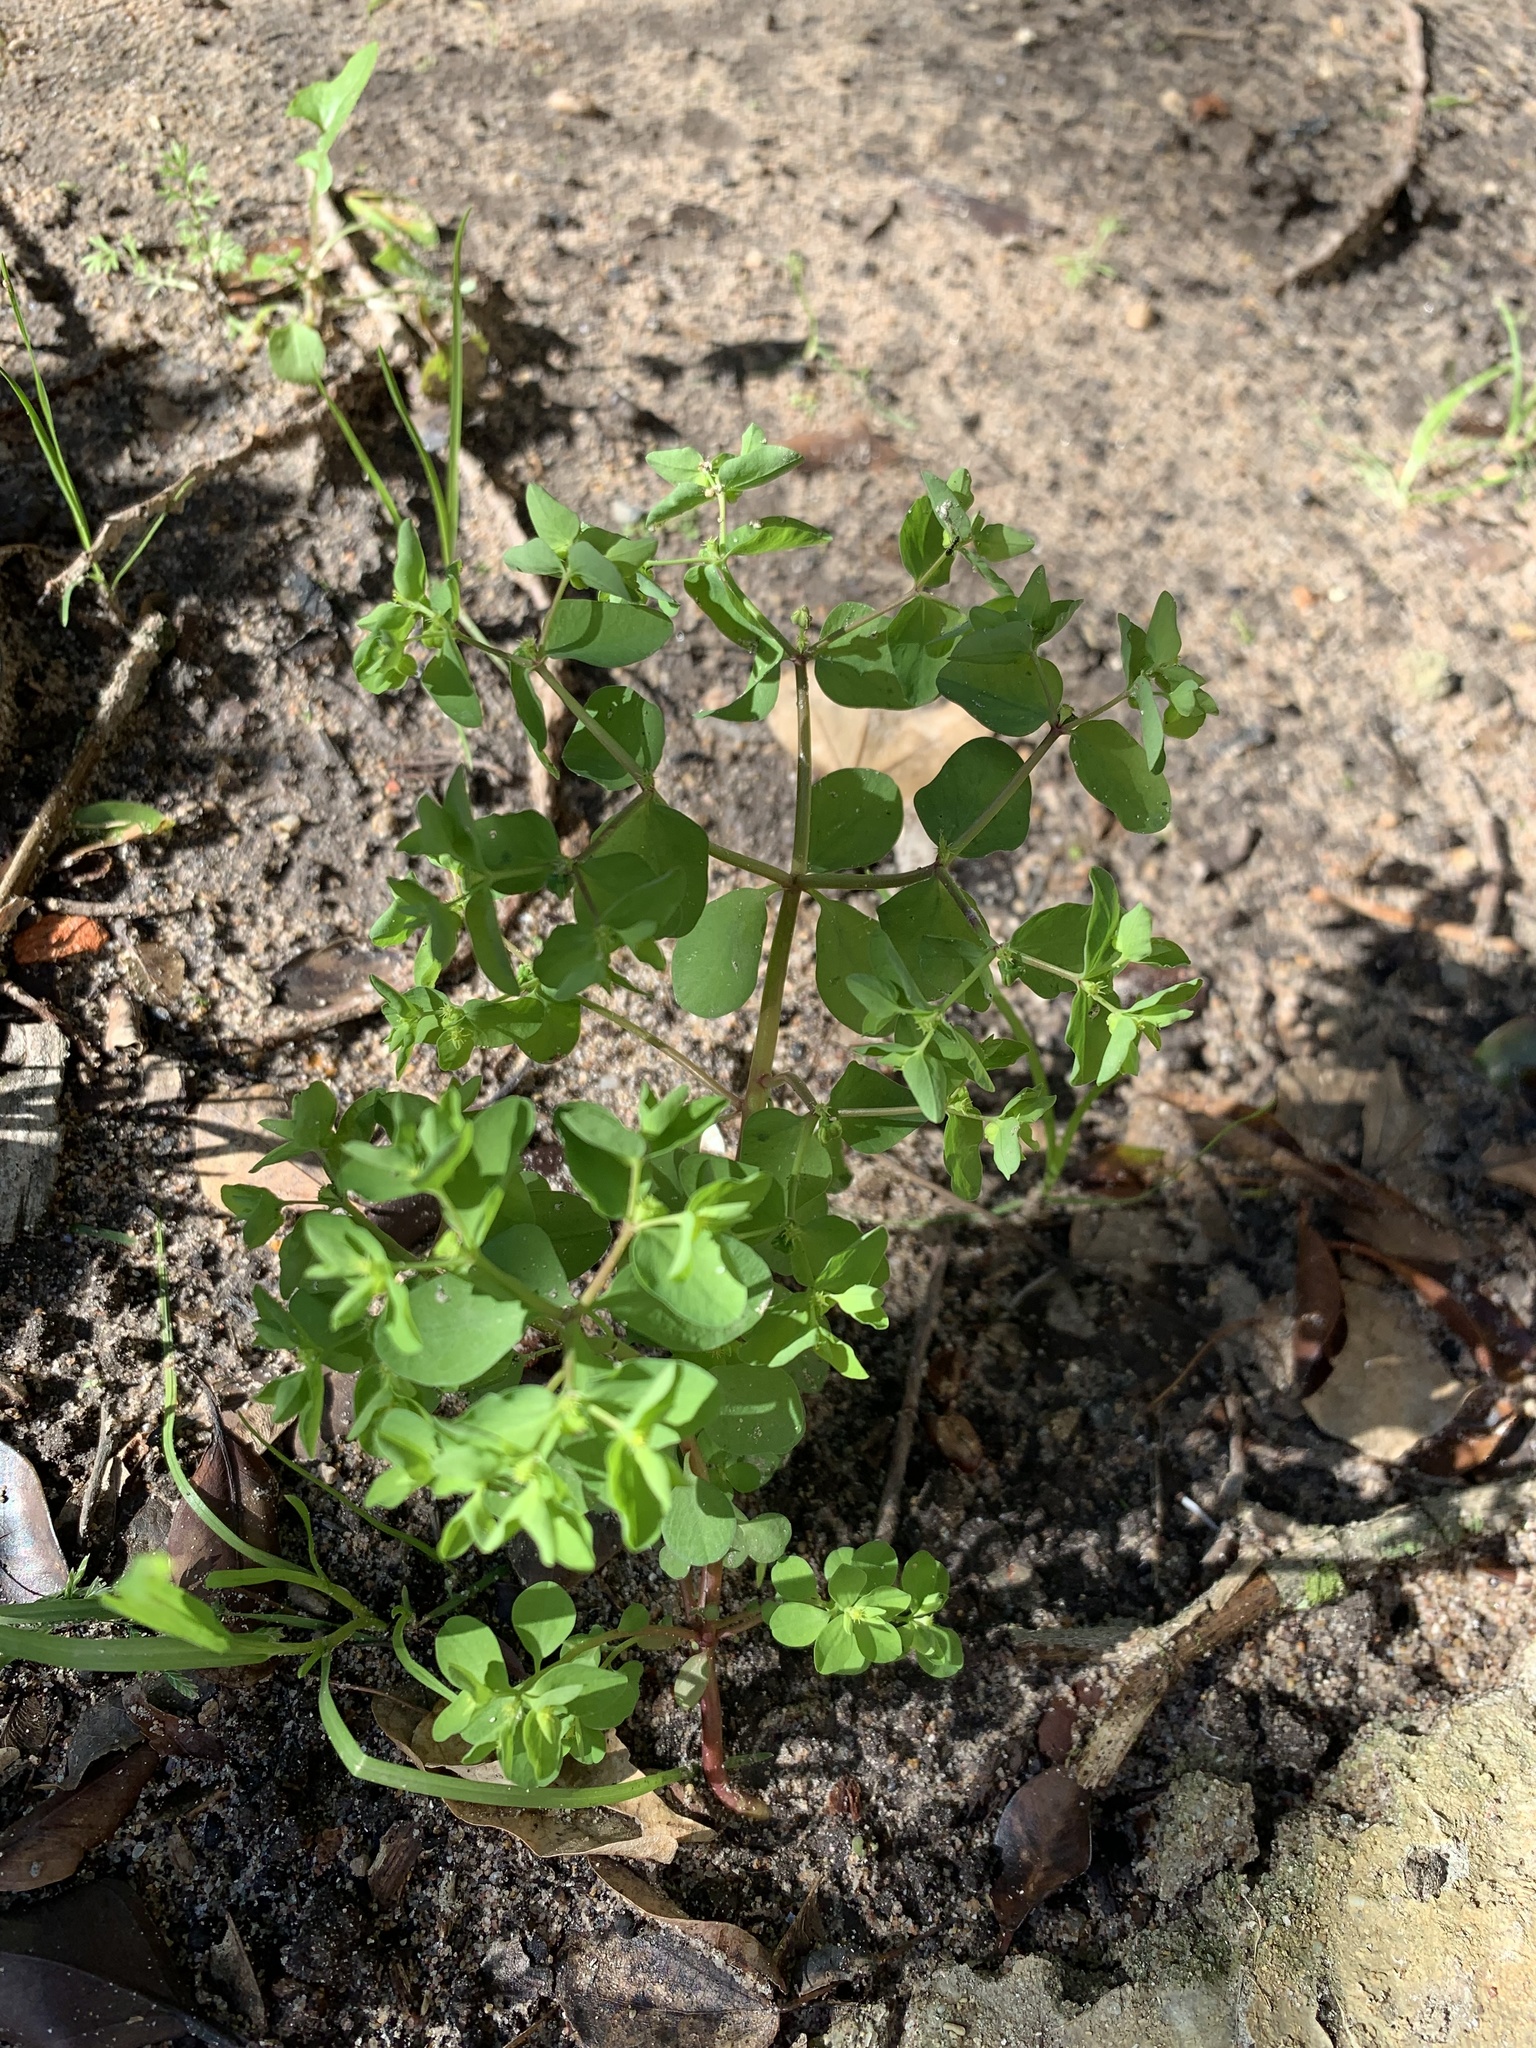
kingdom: Plantae
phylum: Tracheophyta
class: Magnoliopsida
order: Malpighiales
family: Euphorbiaceae
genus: Euphorbia
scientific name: Euphorbia peplus
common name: Petty spurge
